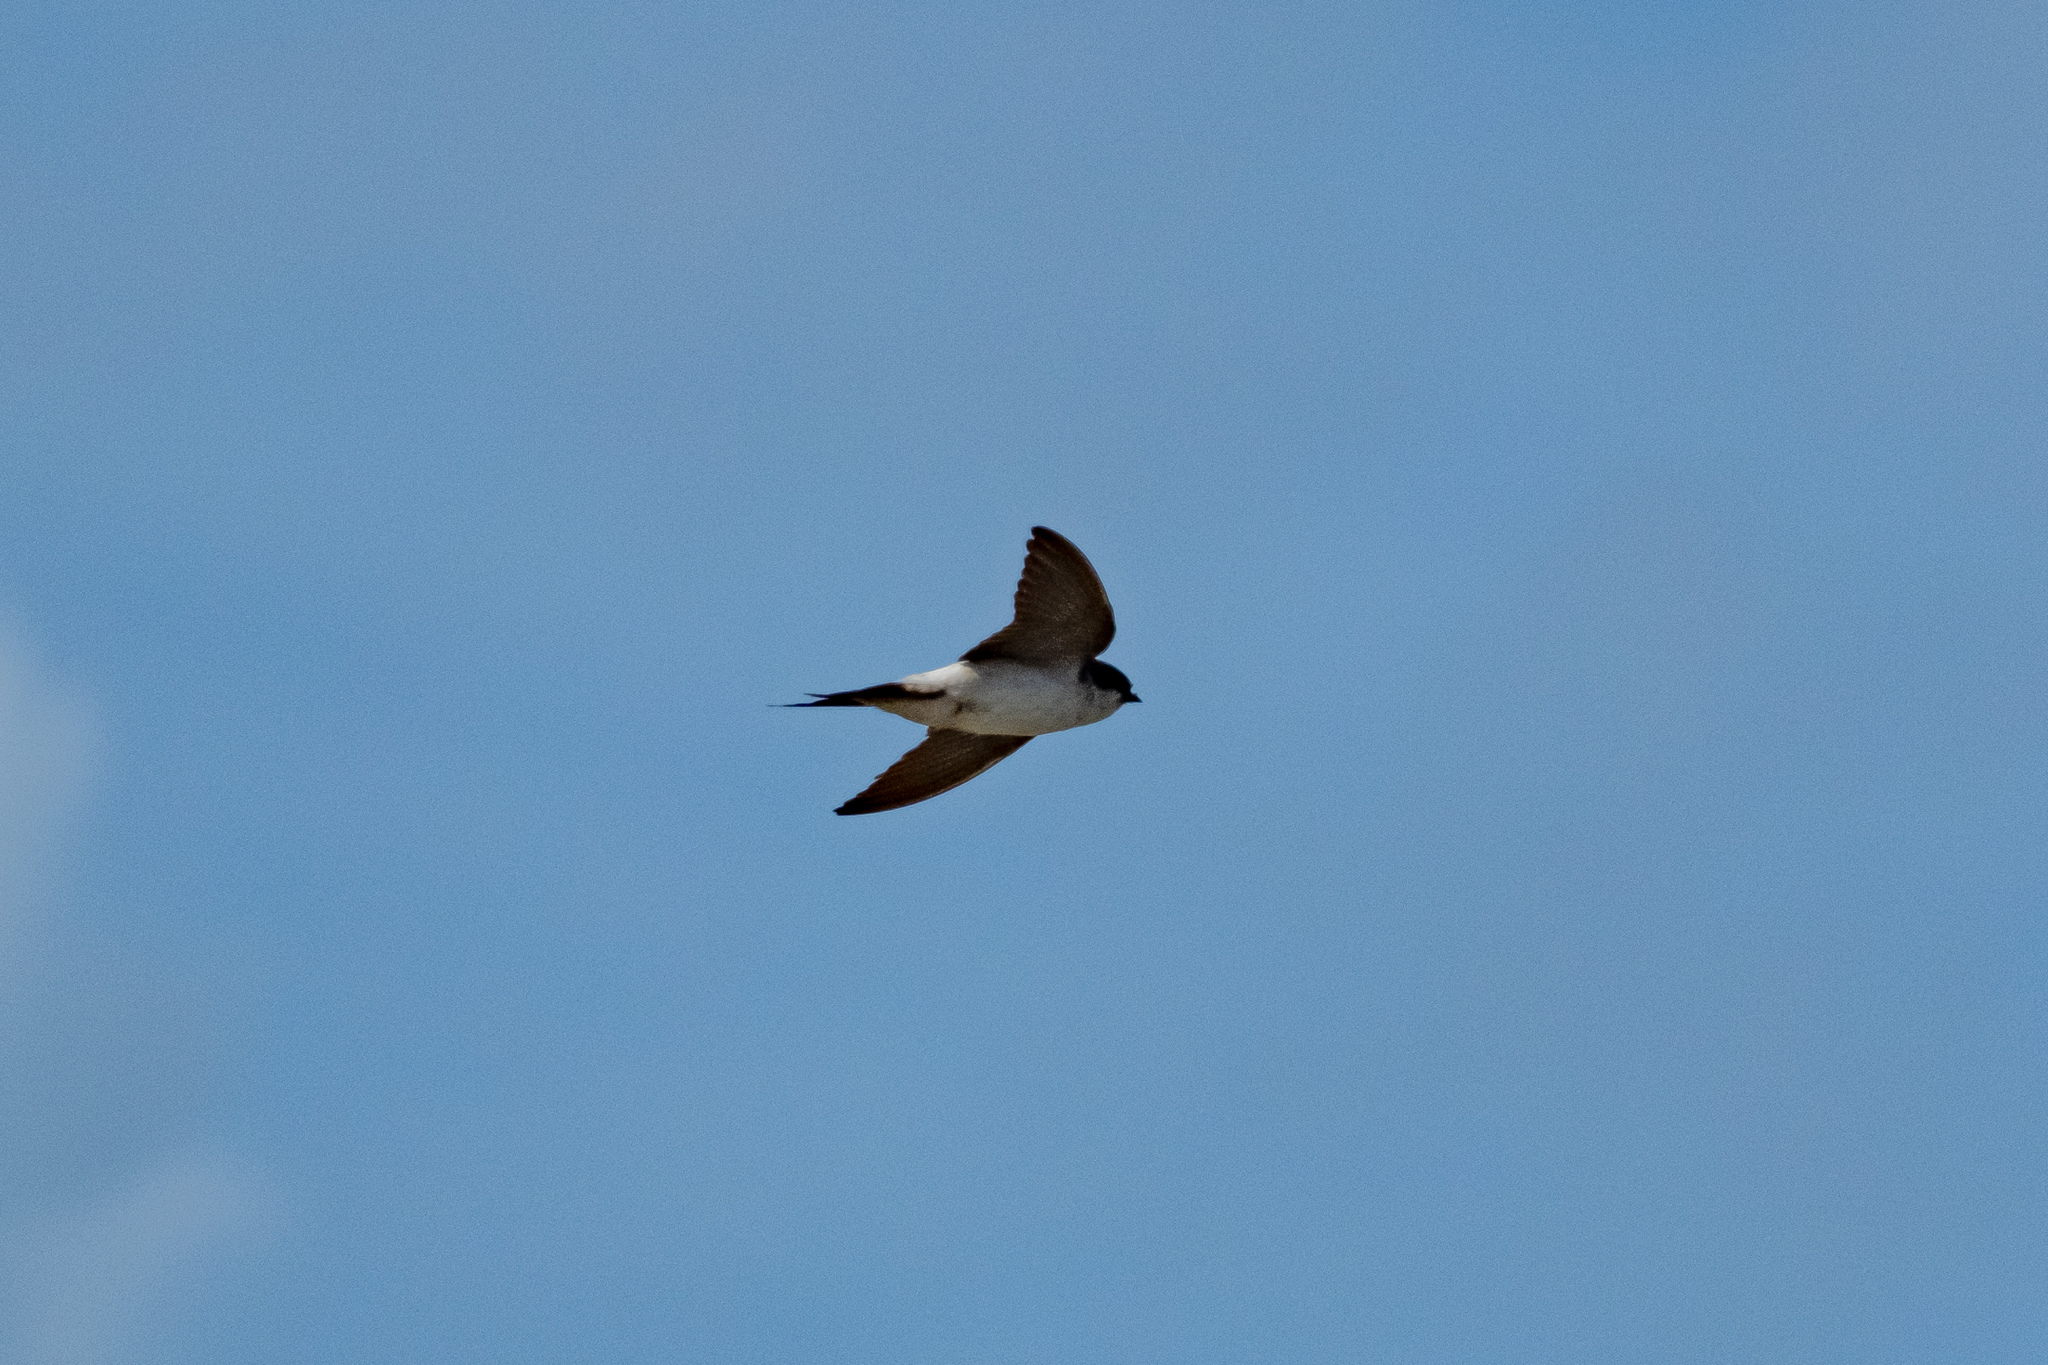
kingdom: Animalia
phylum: Chordata
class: Aves
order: Passeriformes
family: Hirundinidae
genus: Delichon
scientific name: Delichon urbicum
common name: Common house martin
